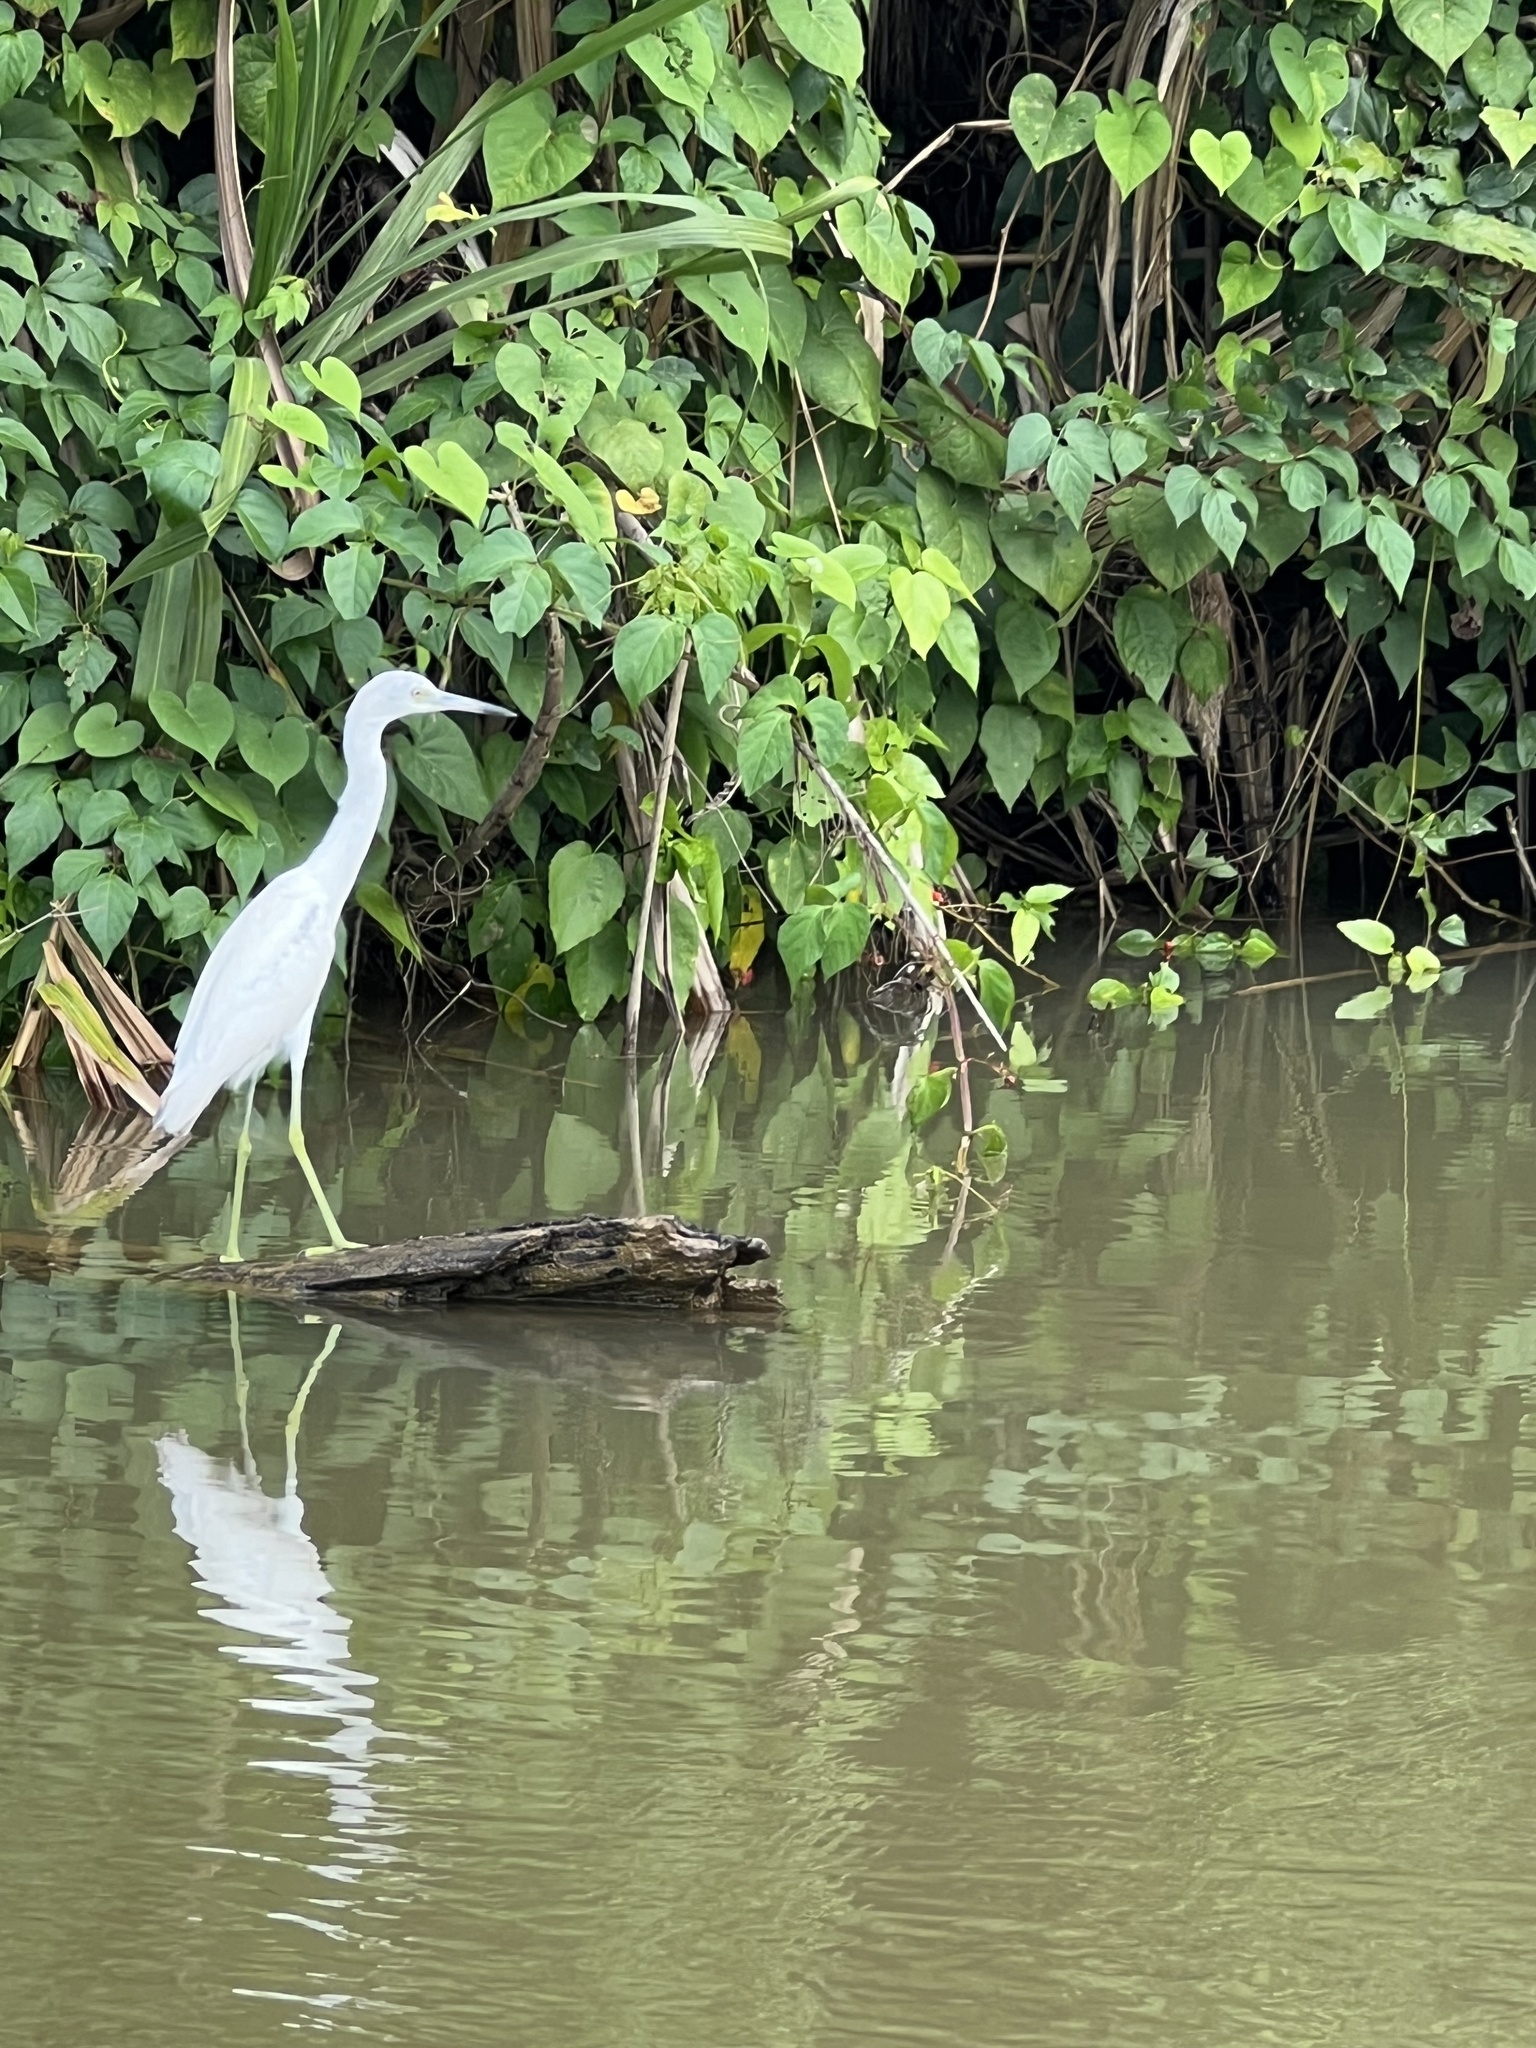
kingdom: Animalia
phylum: Chordata
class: Aves
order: Pelecaniformes
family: Ardeidae
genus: Egretta
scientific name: Egretta caerulea
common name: Little blue heron
